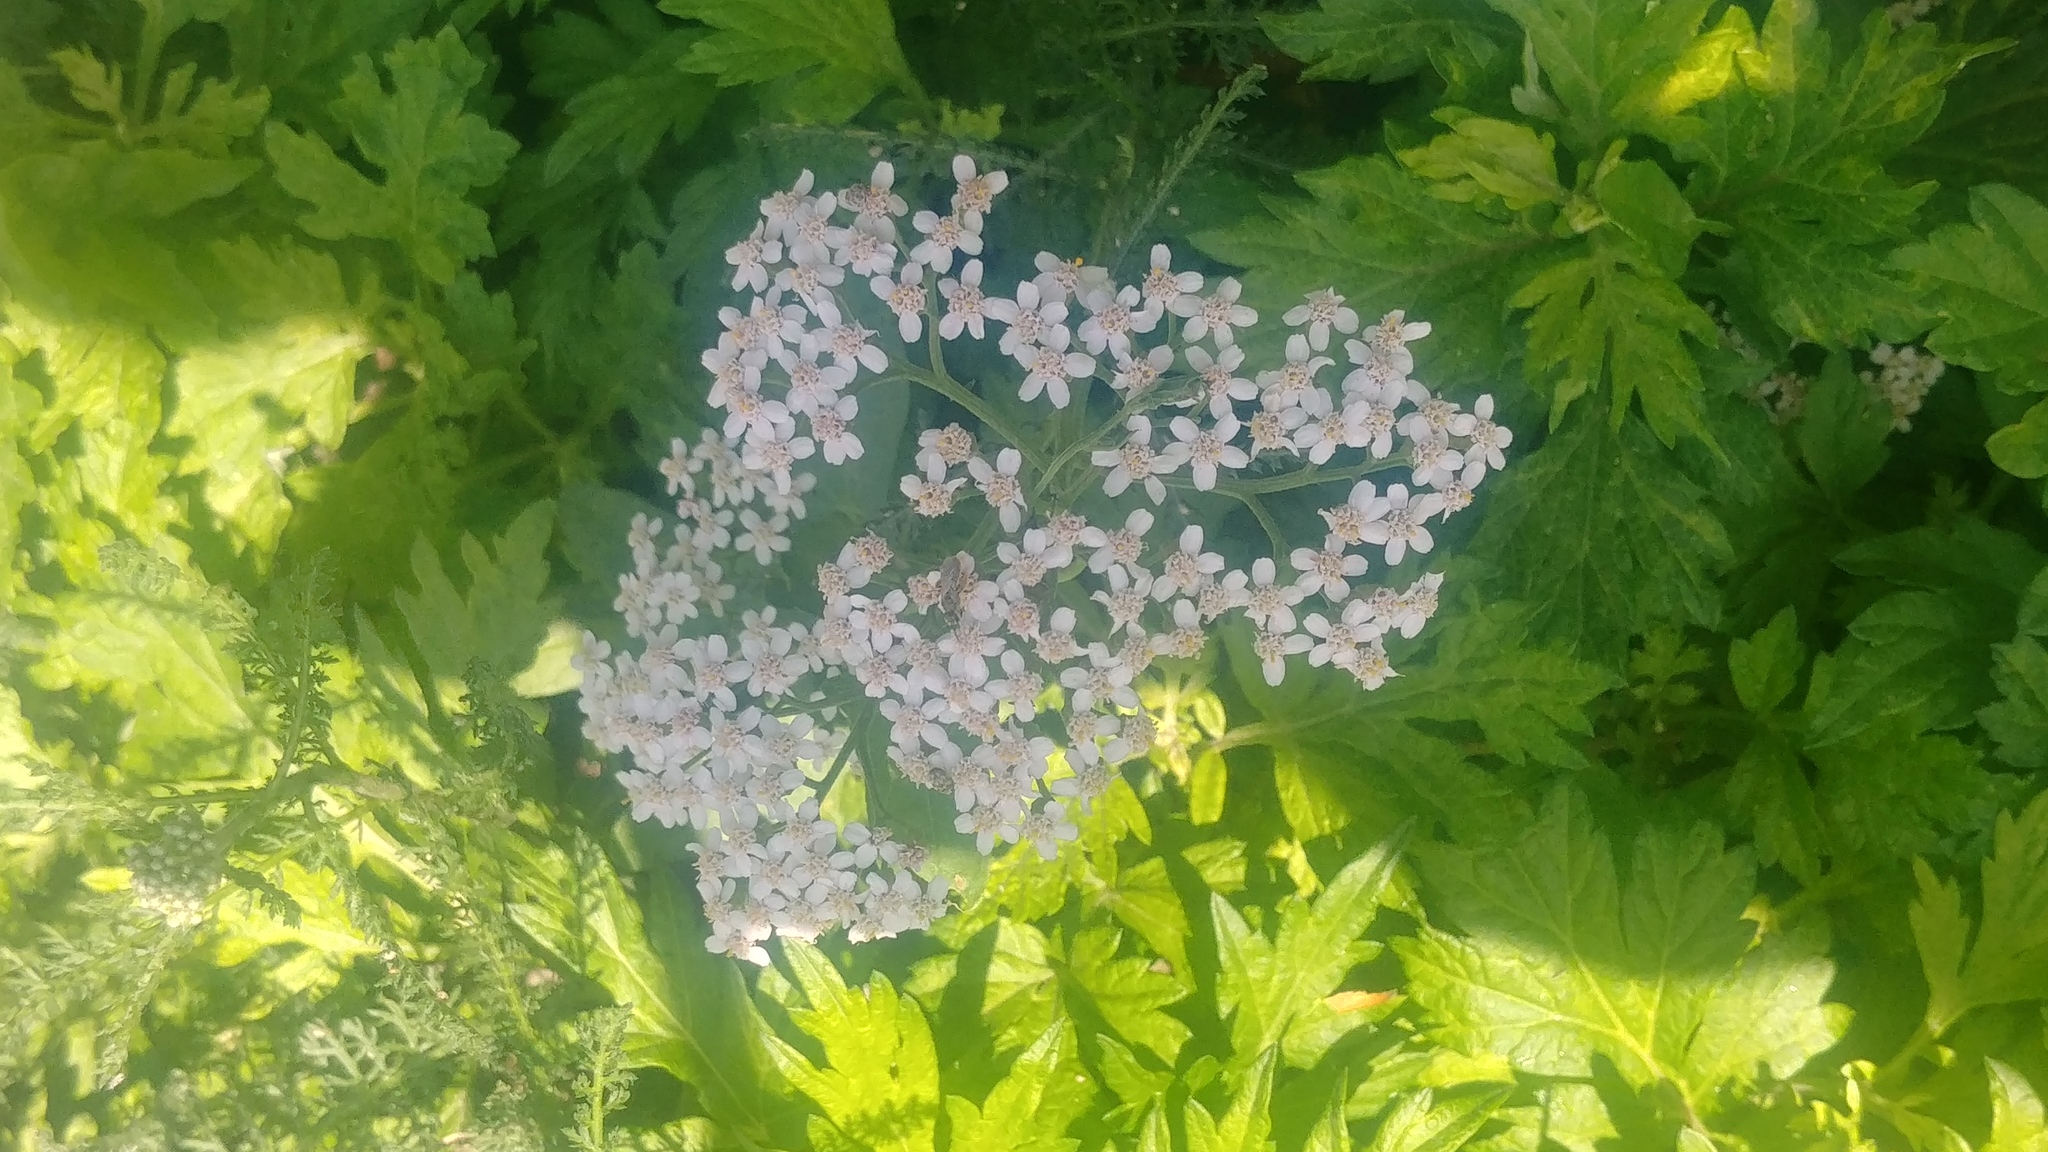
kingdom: Plantae
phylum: Tracheophyta
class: Magnoliopsida
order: Asterales
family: Asteraceae
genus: Achillea
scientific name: Achillea millefolium
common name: Yarrow
